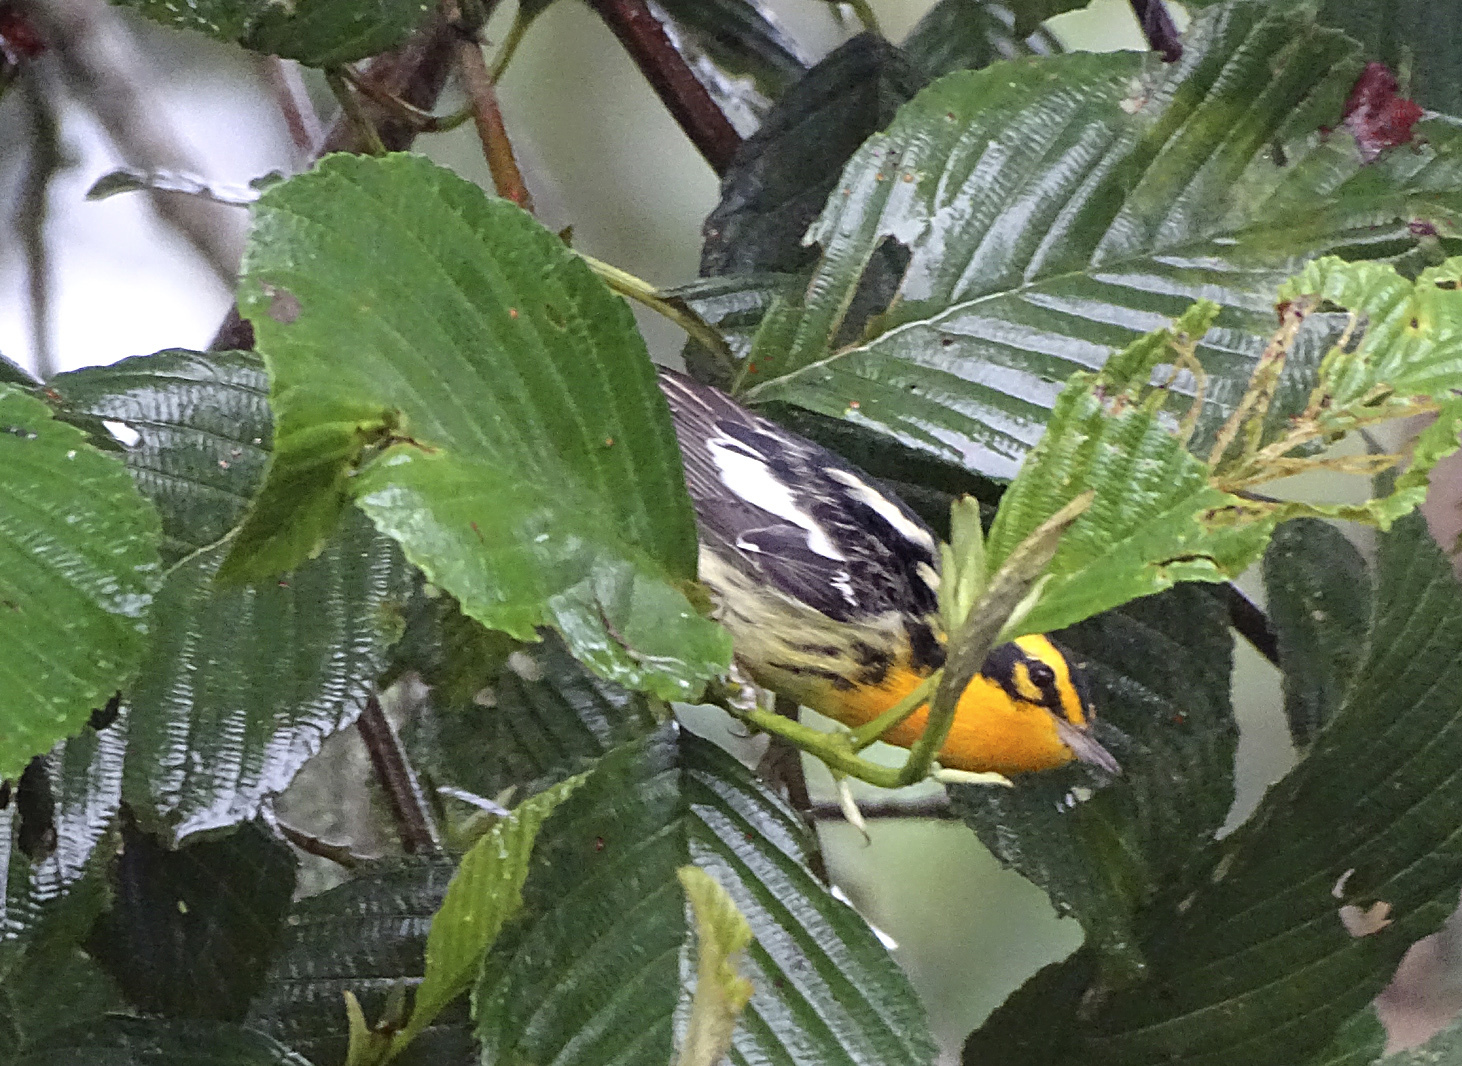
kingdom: Animalia
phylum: Chordata
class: Aves
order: Passeriformes
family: Parulidae
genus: Setophaga
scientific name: Setophaga fusca
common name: Blackburnian warbler
